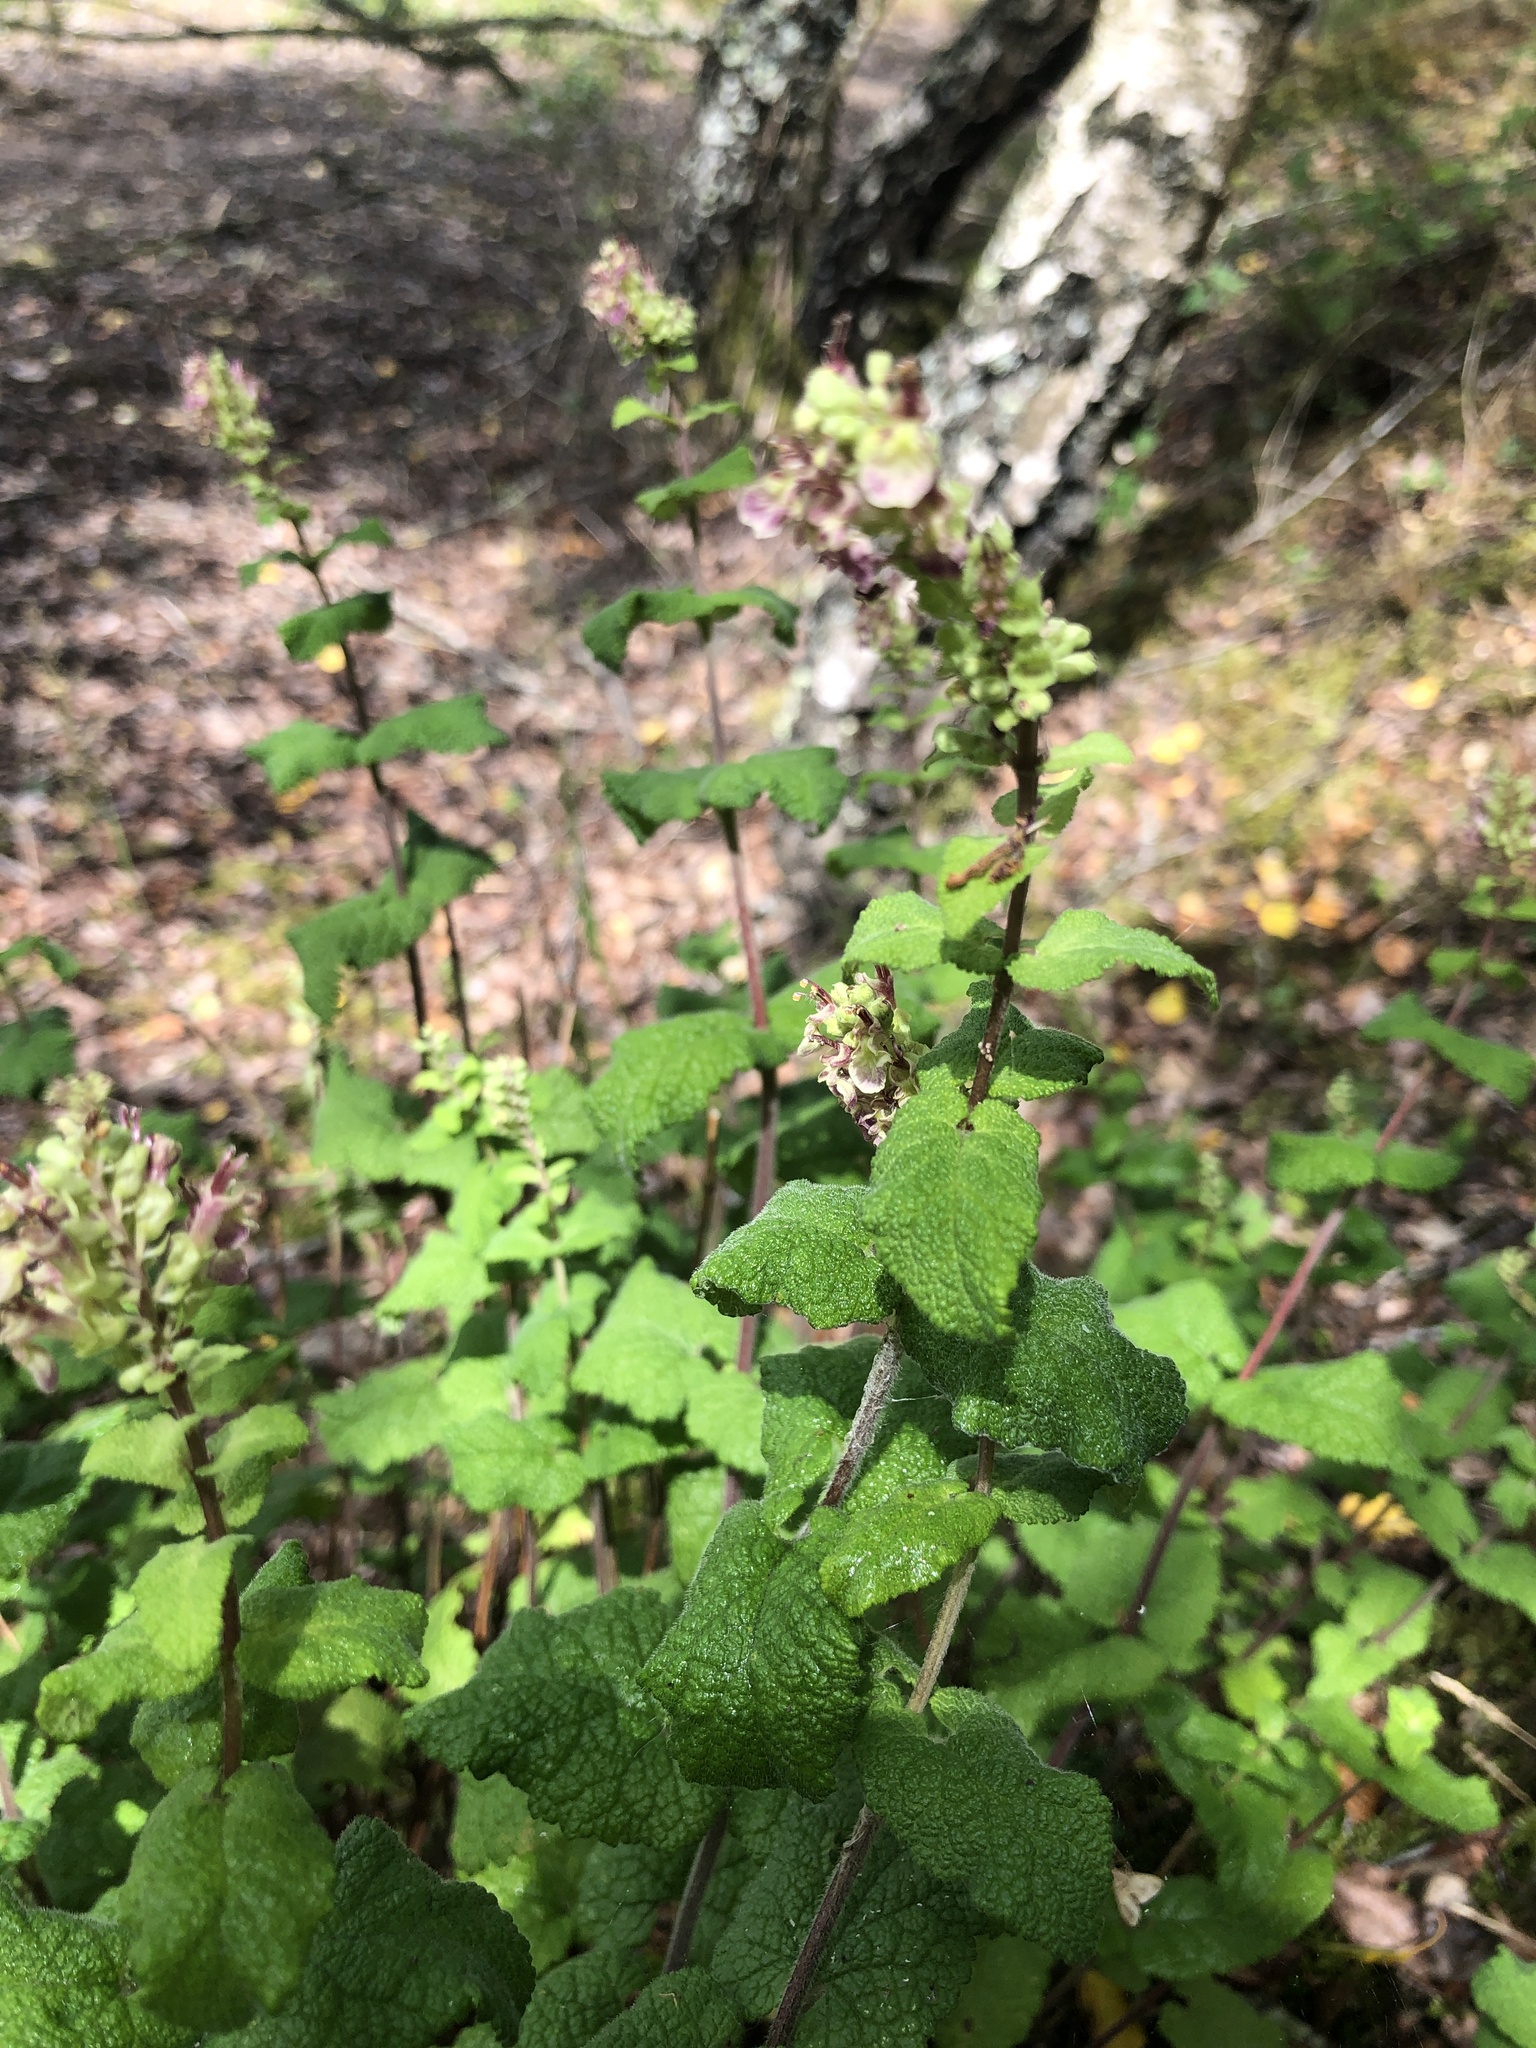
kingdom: Plantae
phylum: Tracheophyta
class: Magnoliopsida
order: Lamiales
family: Lamiaceae
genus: Teucrium
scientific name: Teucrium scorodonia
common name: Woodland germander
